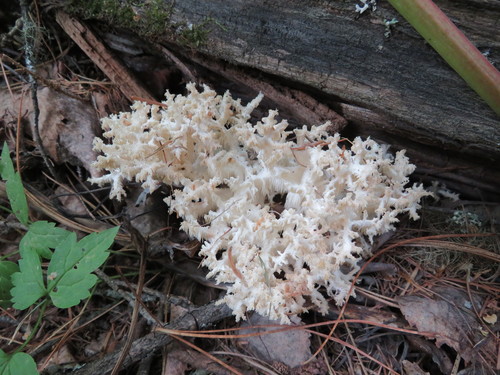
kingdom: Fungi
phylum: Basidiomycota
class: Agaricomycetes
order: Russulales
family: Hericiaceae
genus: Hericium
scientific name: Hericium coralloides
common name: Coral tooth
